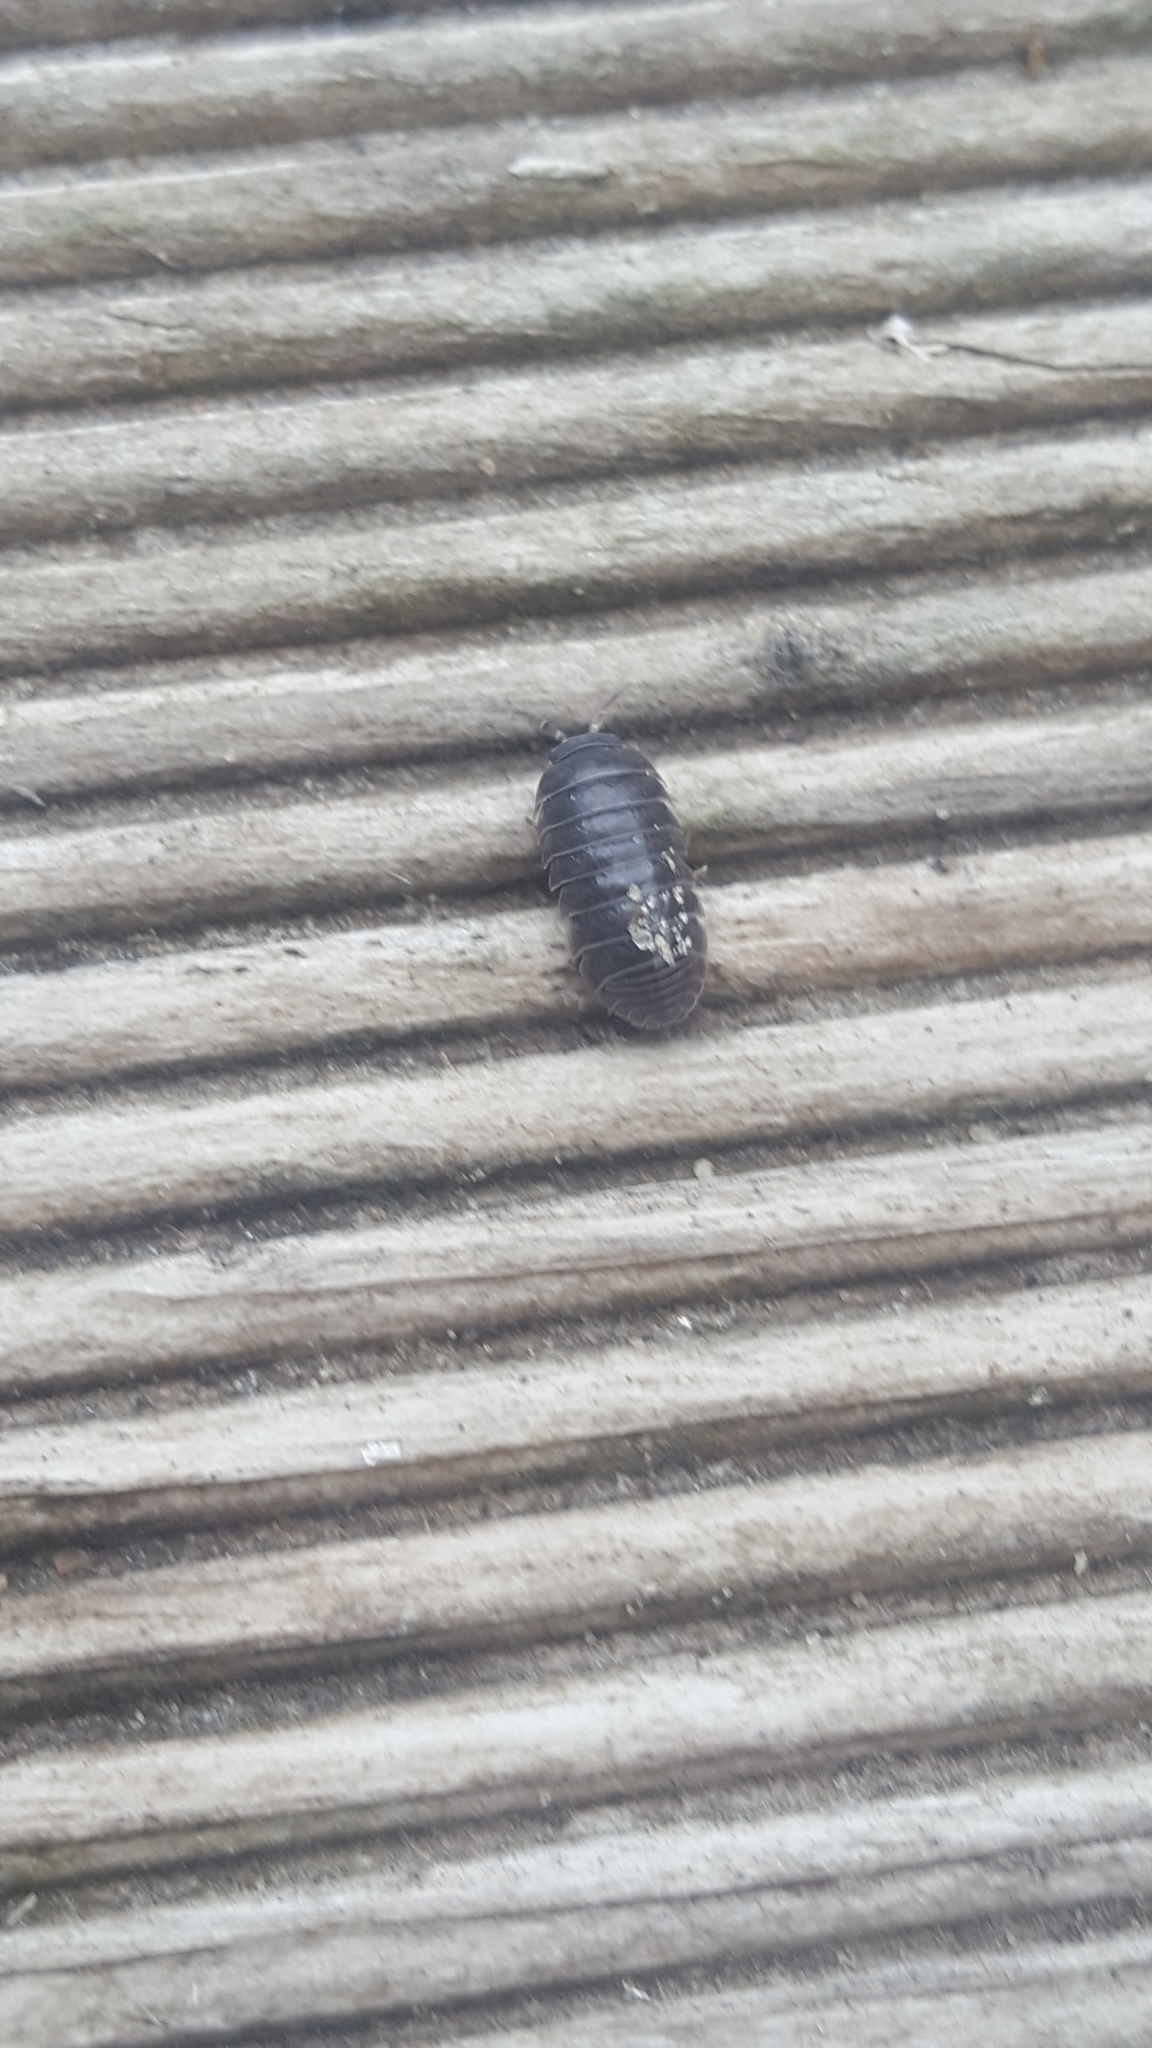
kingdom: Animalia
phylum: Arthropoda
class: Malacostraca
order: Isopoda
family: Armadillidiidae
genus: Armadillidium
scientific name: Armadillidium vulgare
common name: Common pill woodlouse
